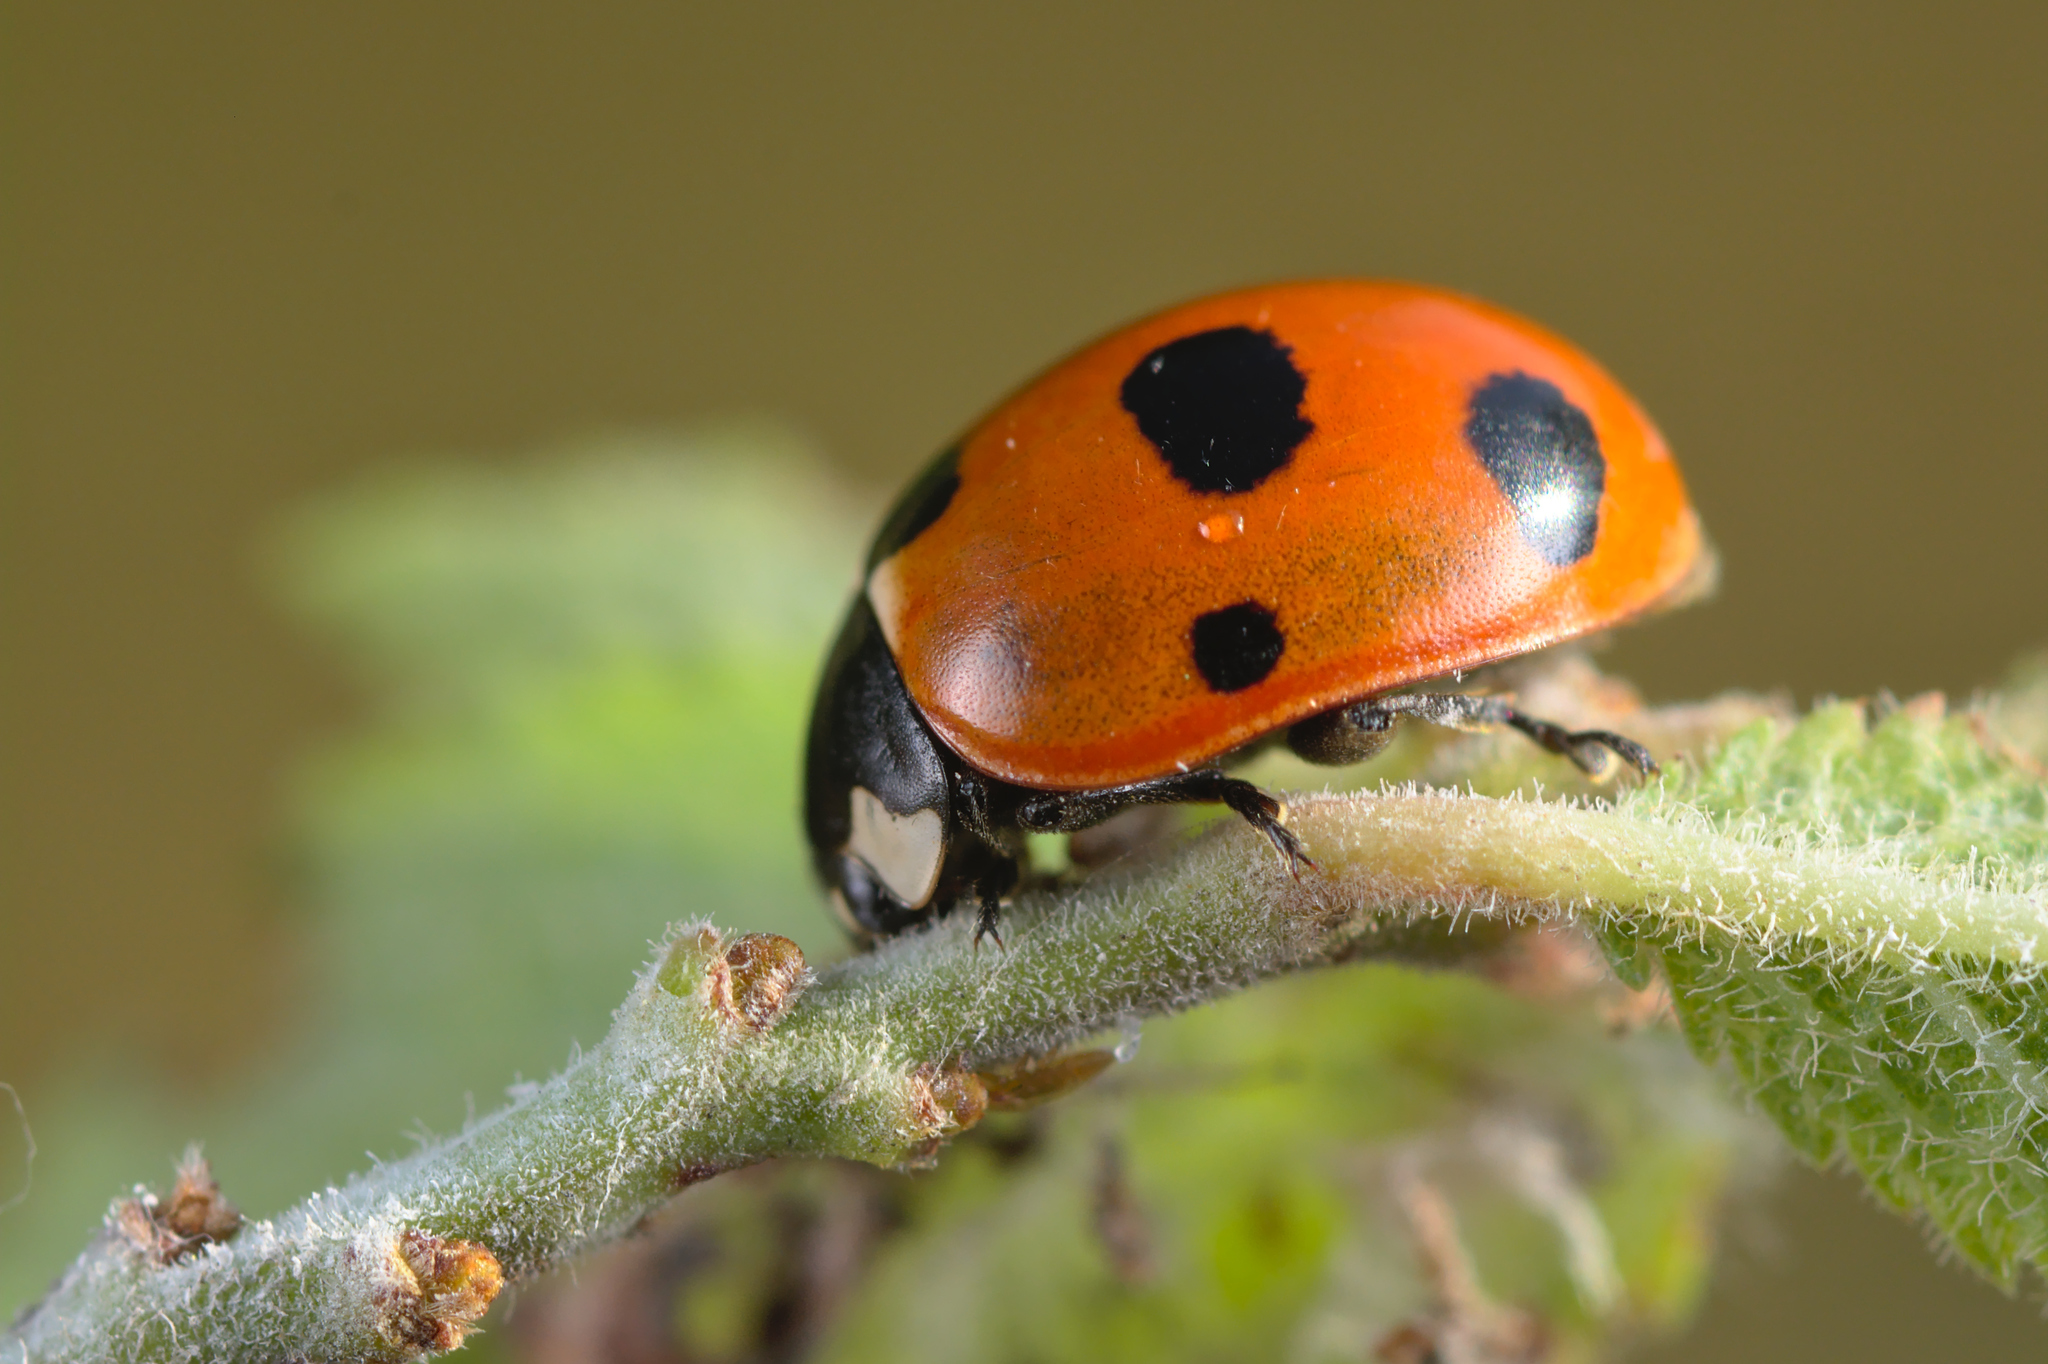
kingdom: Animalia
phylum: Arthropoda
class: Insecta
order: Coleoptera
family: Coccinellidae
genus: Coccinella
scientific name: Coccinella magnifica
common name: Scarce 7-spot ladybird
